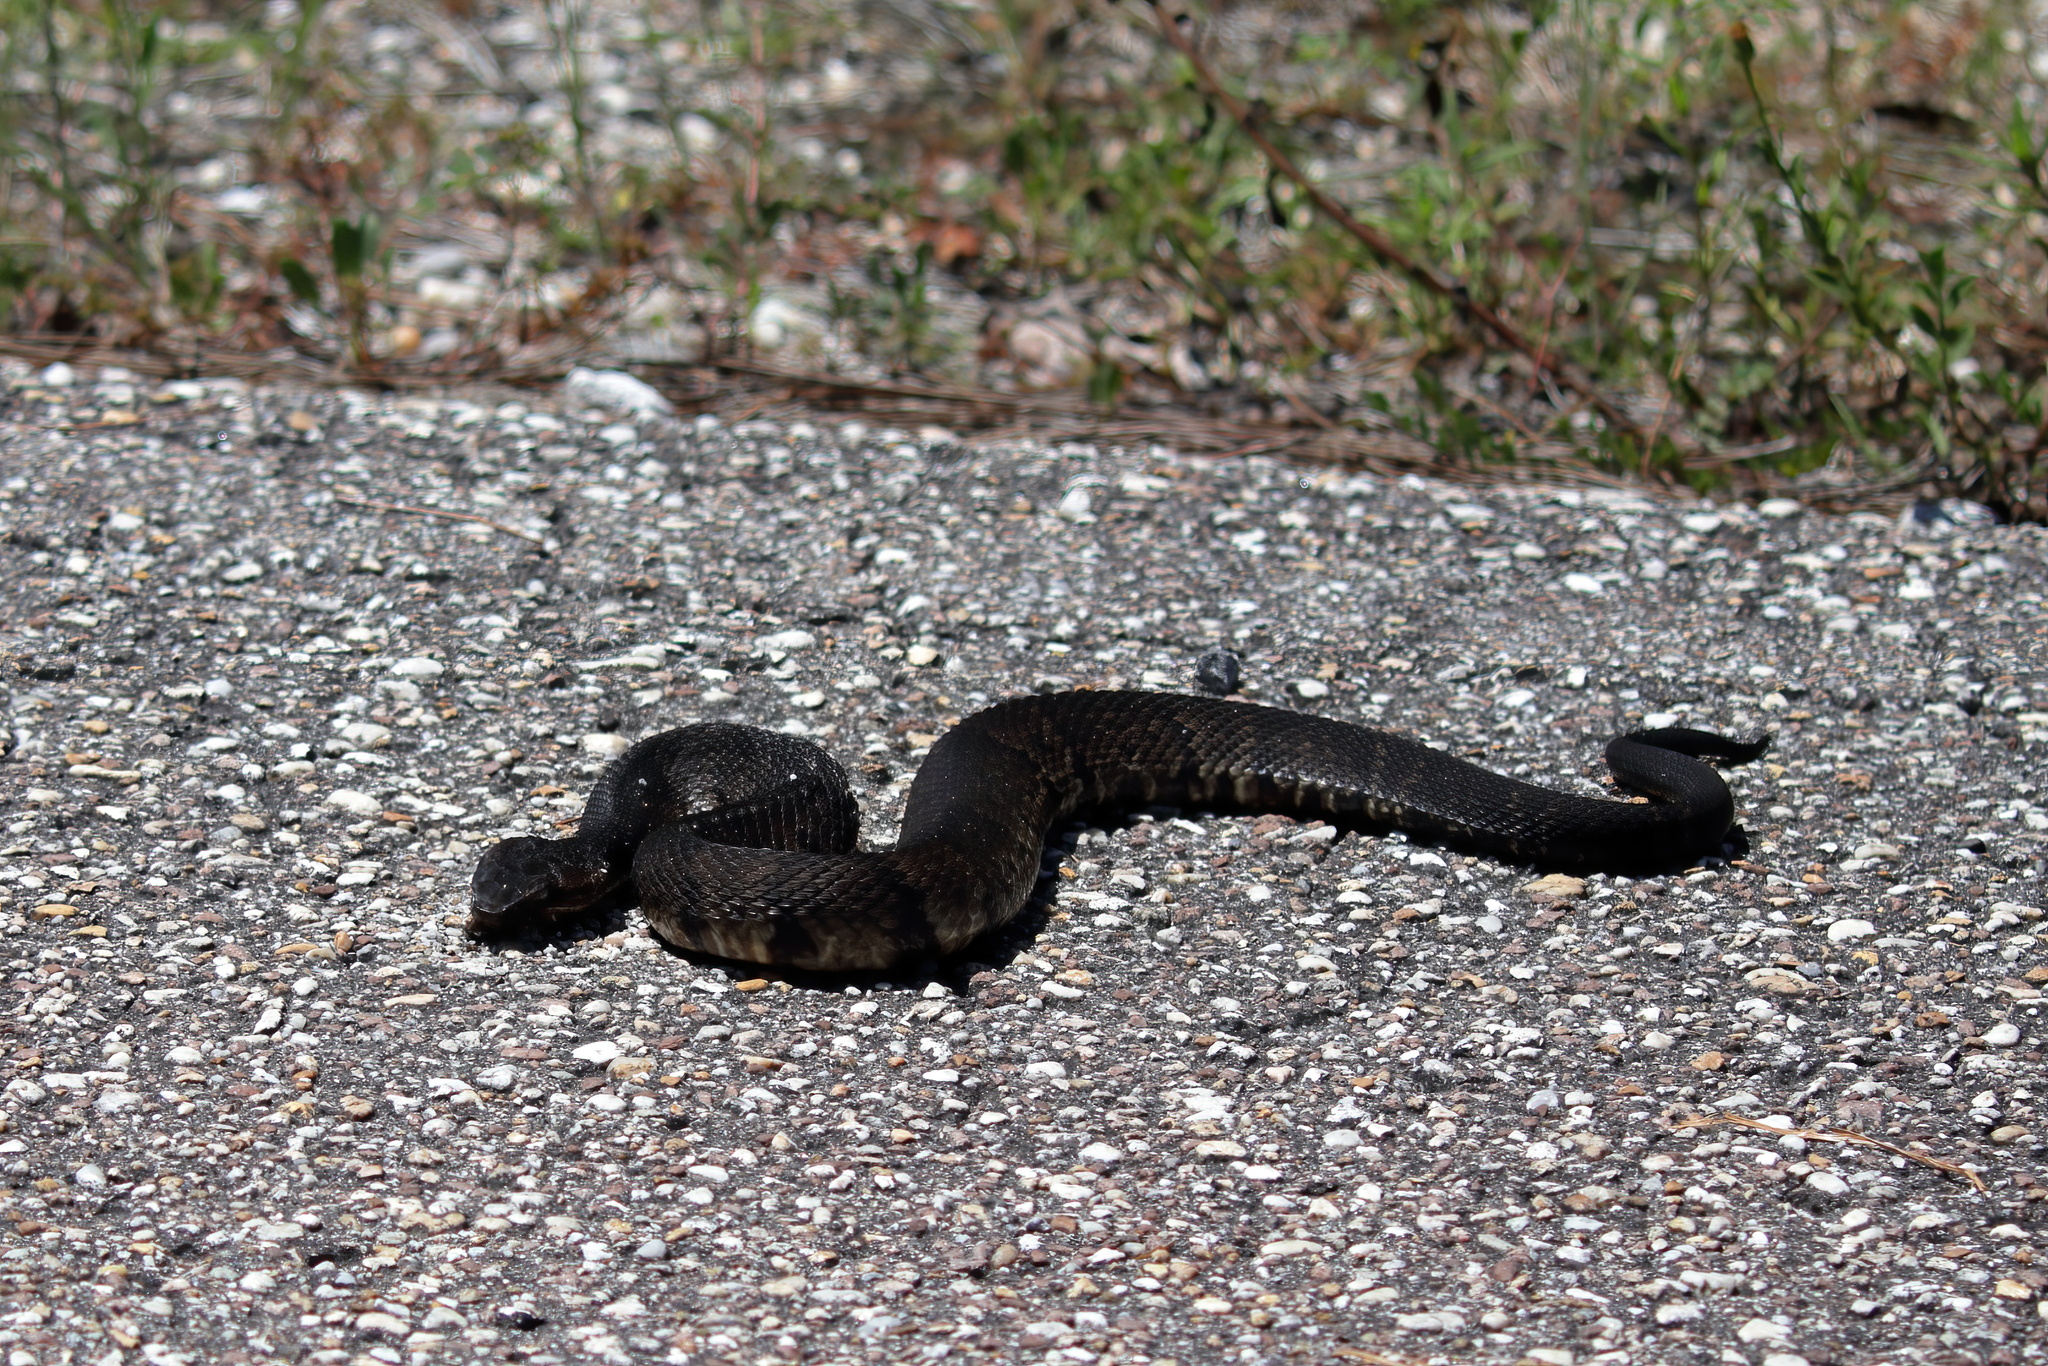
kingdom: Animalia
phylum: Chordata
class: Squamata
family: Viperidae
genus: Agkistrodon
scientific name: Agkistrodon piscivorus
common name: Cottonmouth
